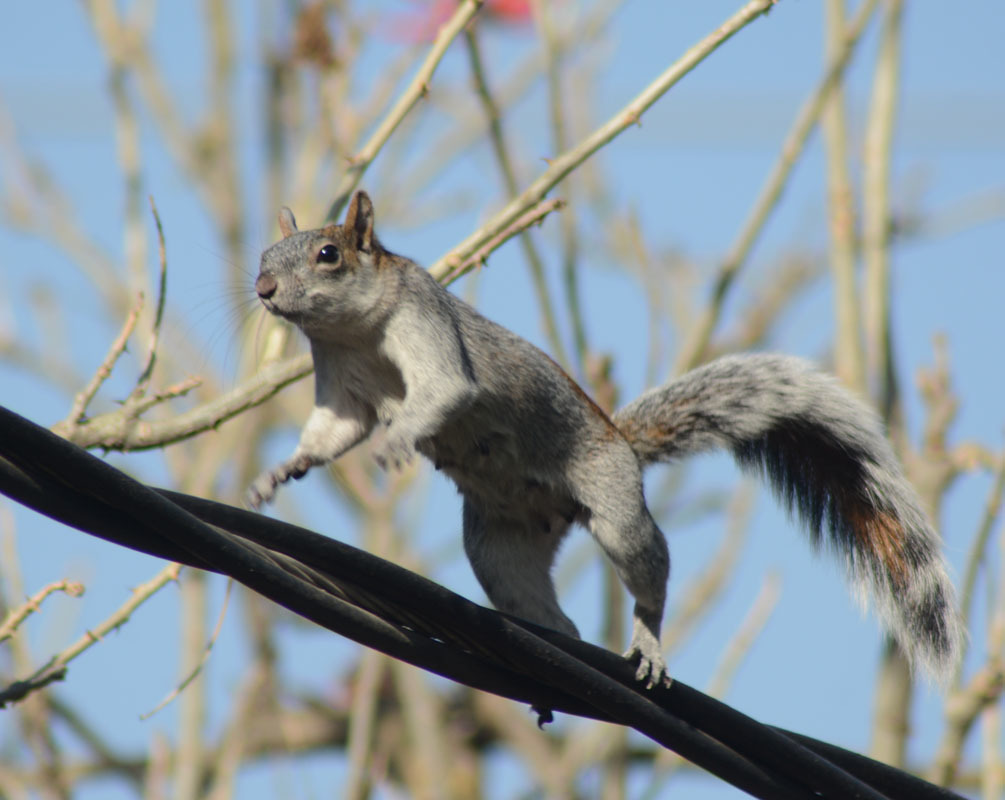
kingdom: Animalia
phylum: Chordata
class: Mammalia
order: Rodentia
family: Sciuridae
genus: Sciurus
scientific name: Sciurus aureogaster
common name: Red-bellied squirrel
